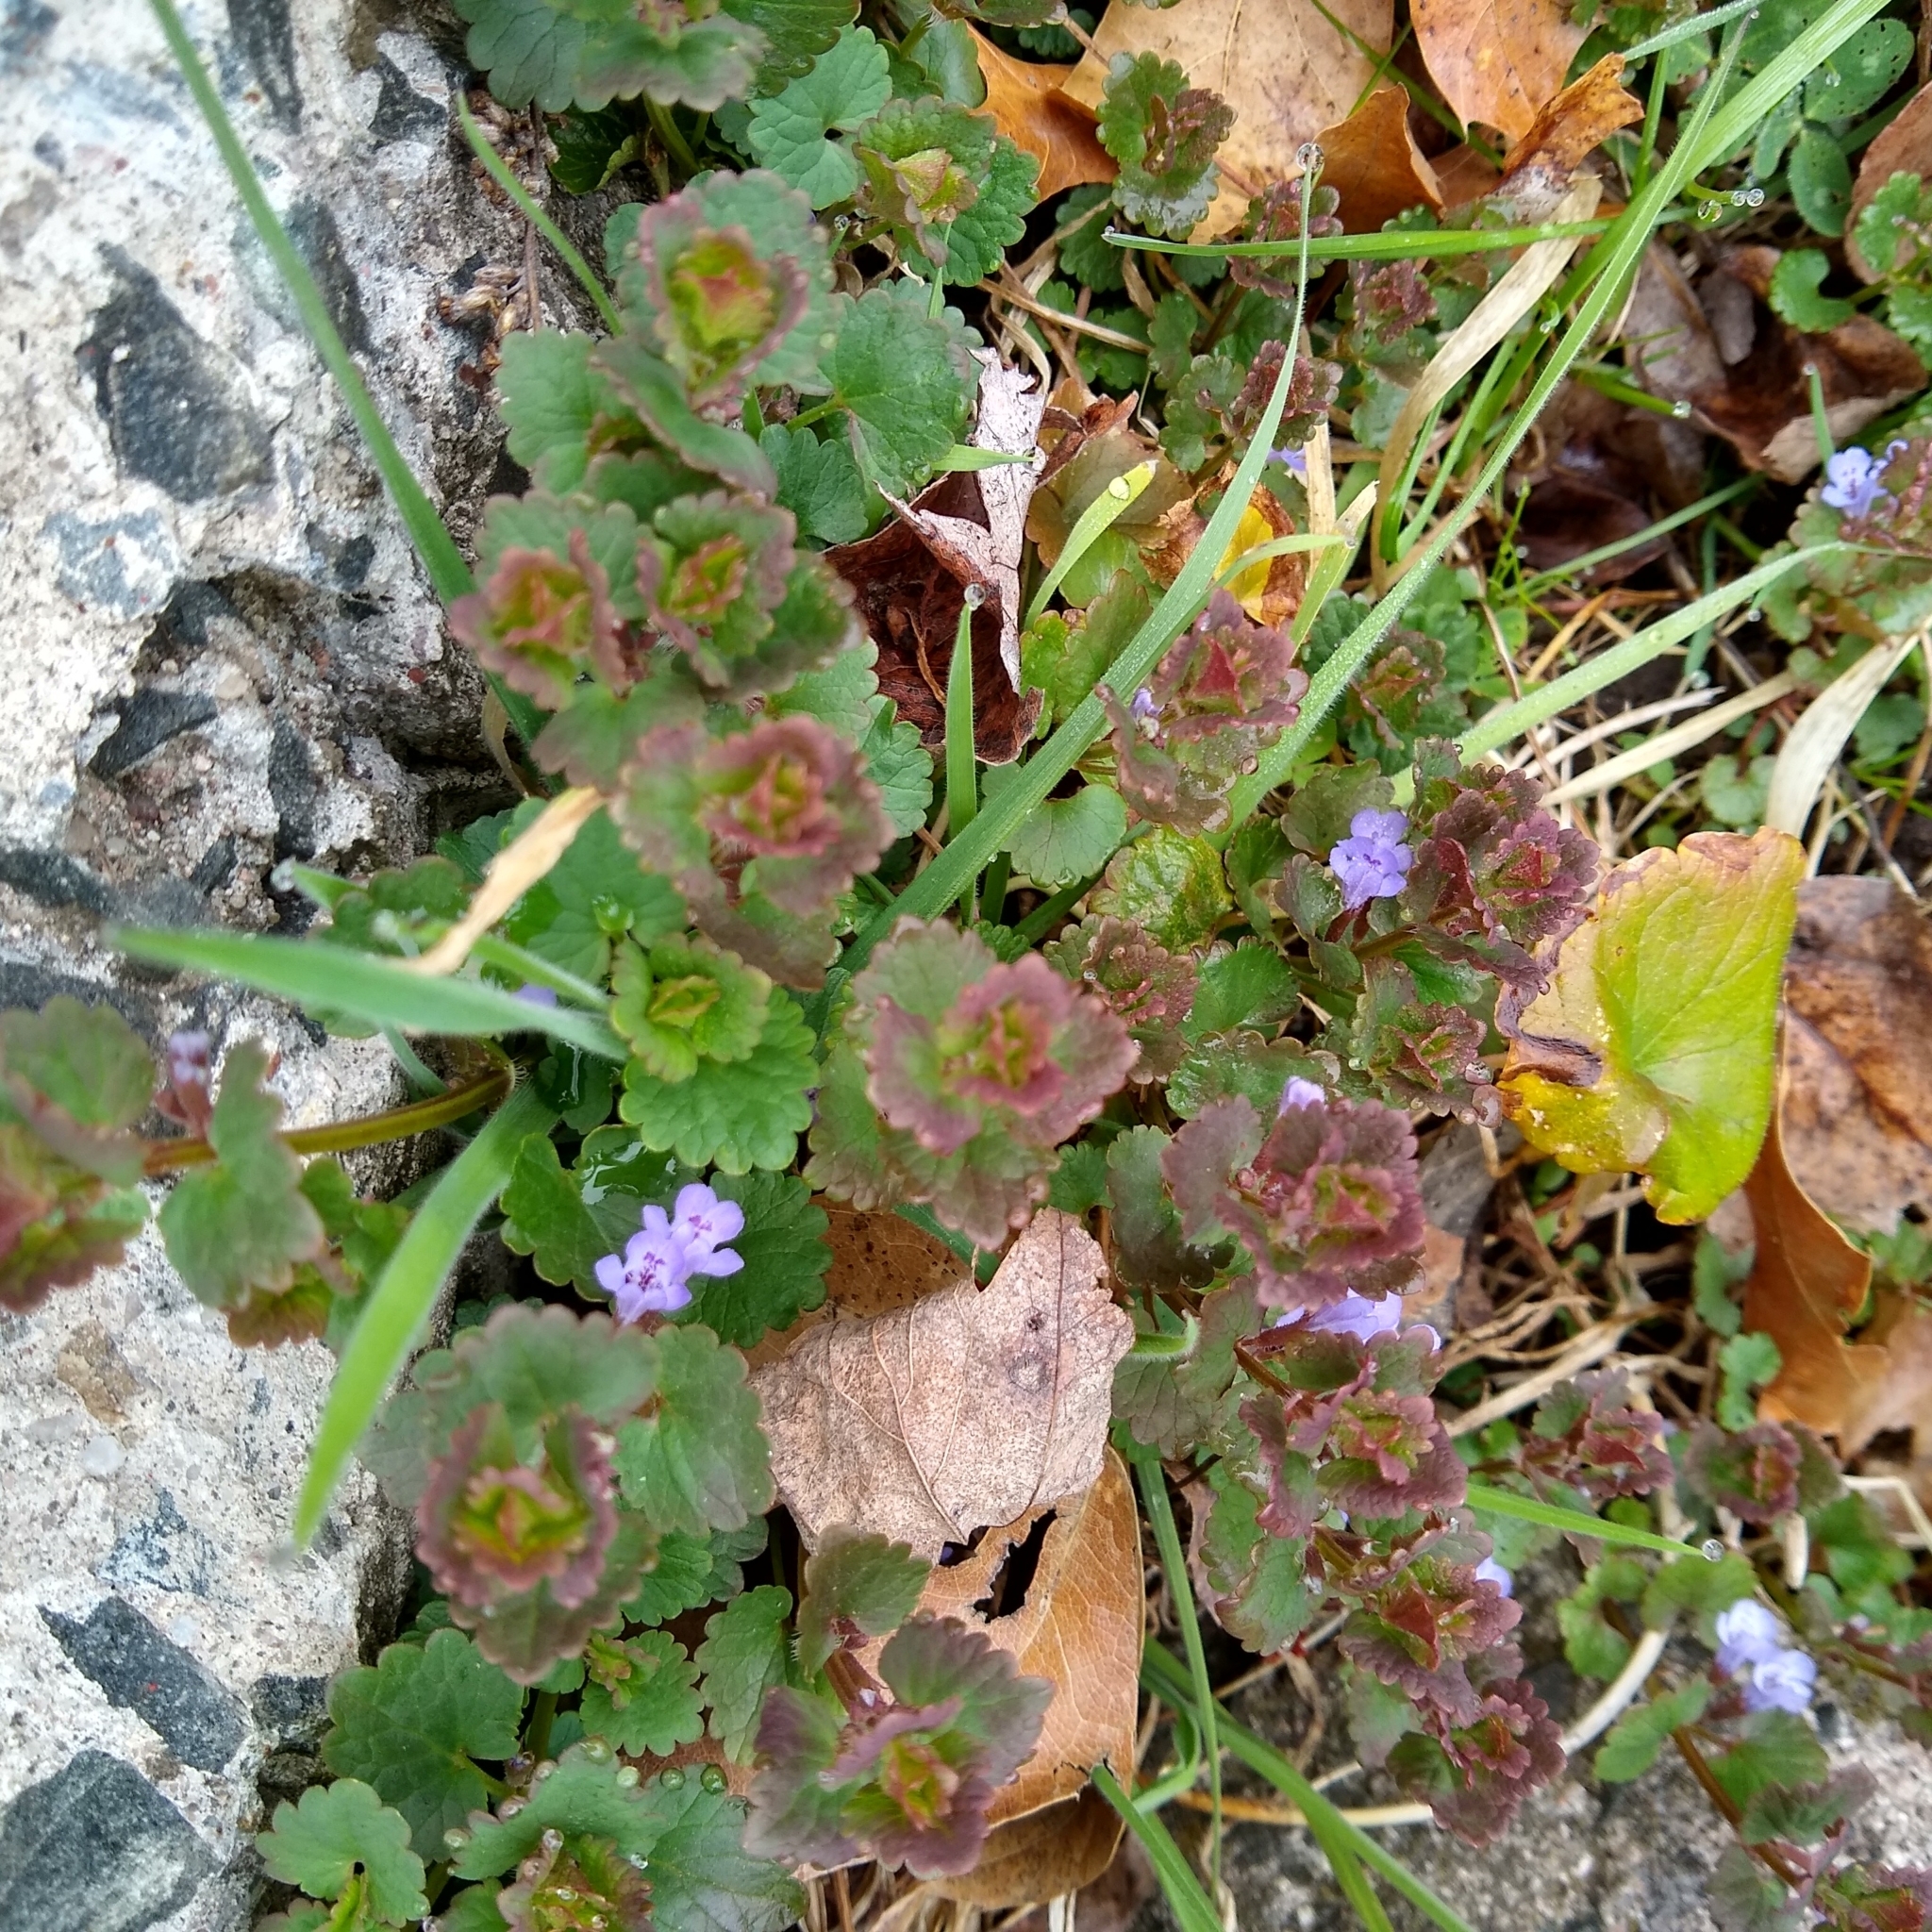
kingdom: Plantae
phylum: Tracheophyta
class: Magnoliopsida
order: Lamiales
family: Lamiaceae
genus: Glechoma
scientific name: Glechoma hederacea
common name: Ground ivy
